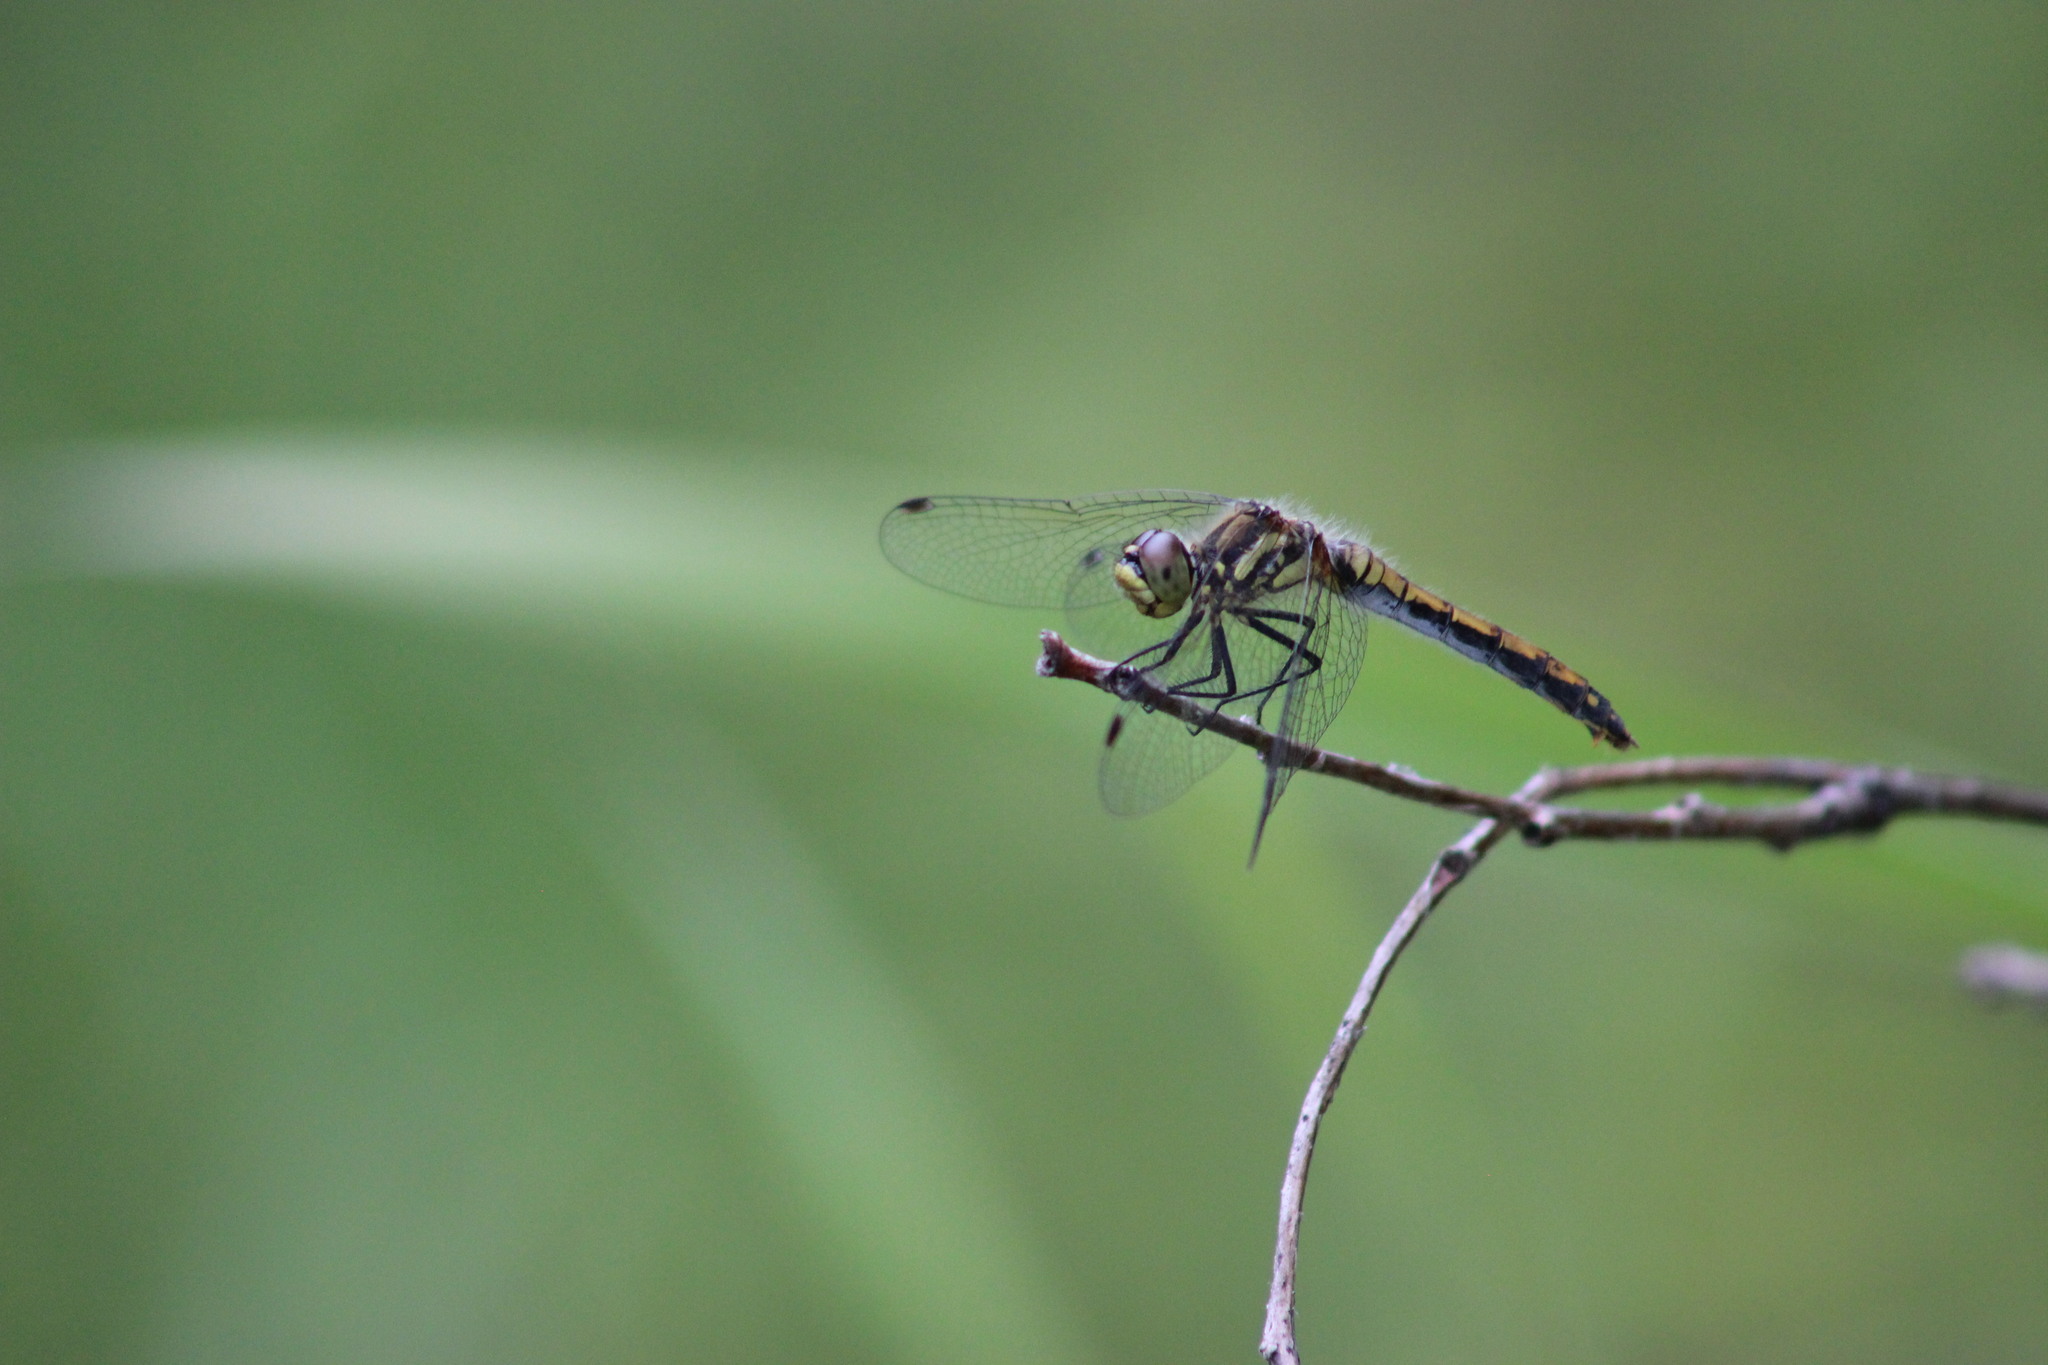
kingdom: Animalia
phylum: Arthropoda
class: Insecta
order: Odonata
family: Libellulidae
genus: Sympetrum
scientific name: Sympetrum danae
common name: Black darter
